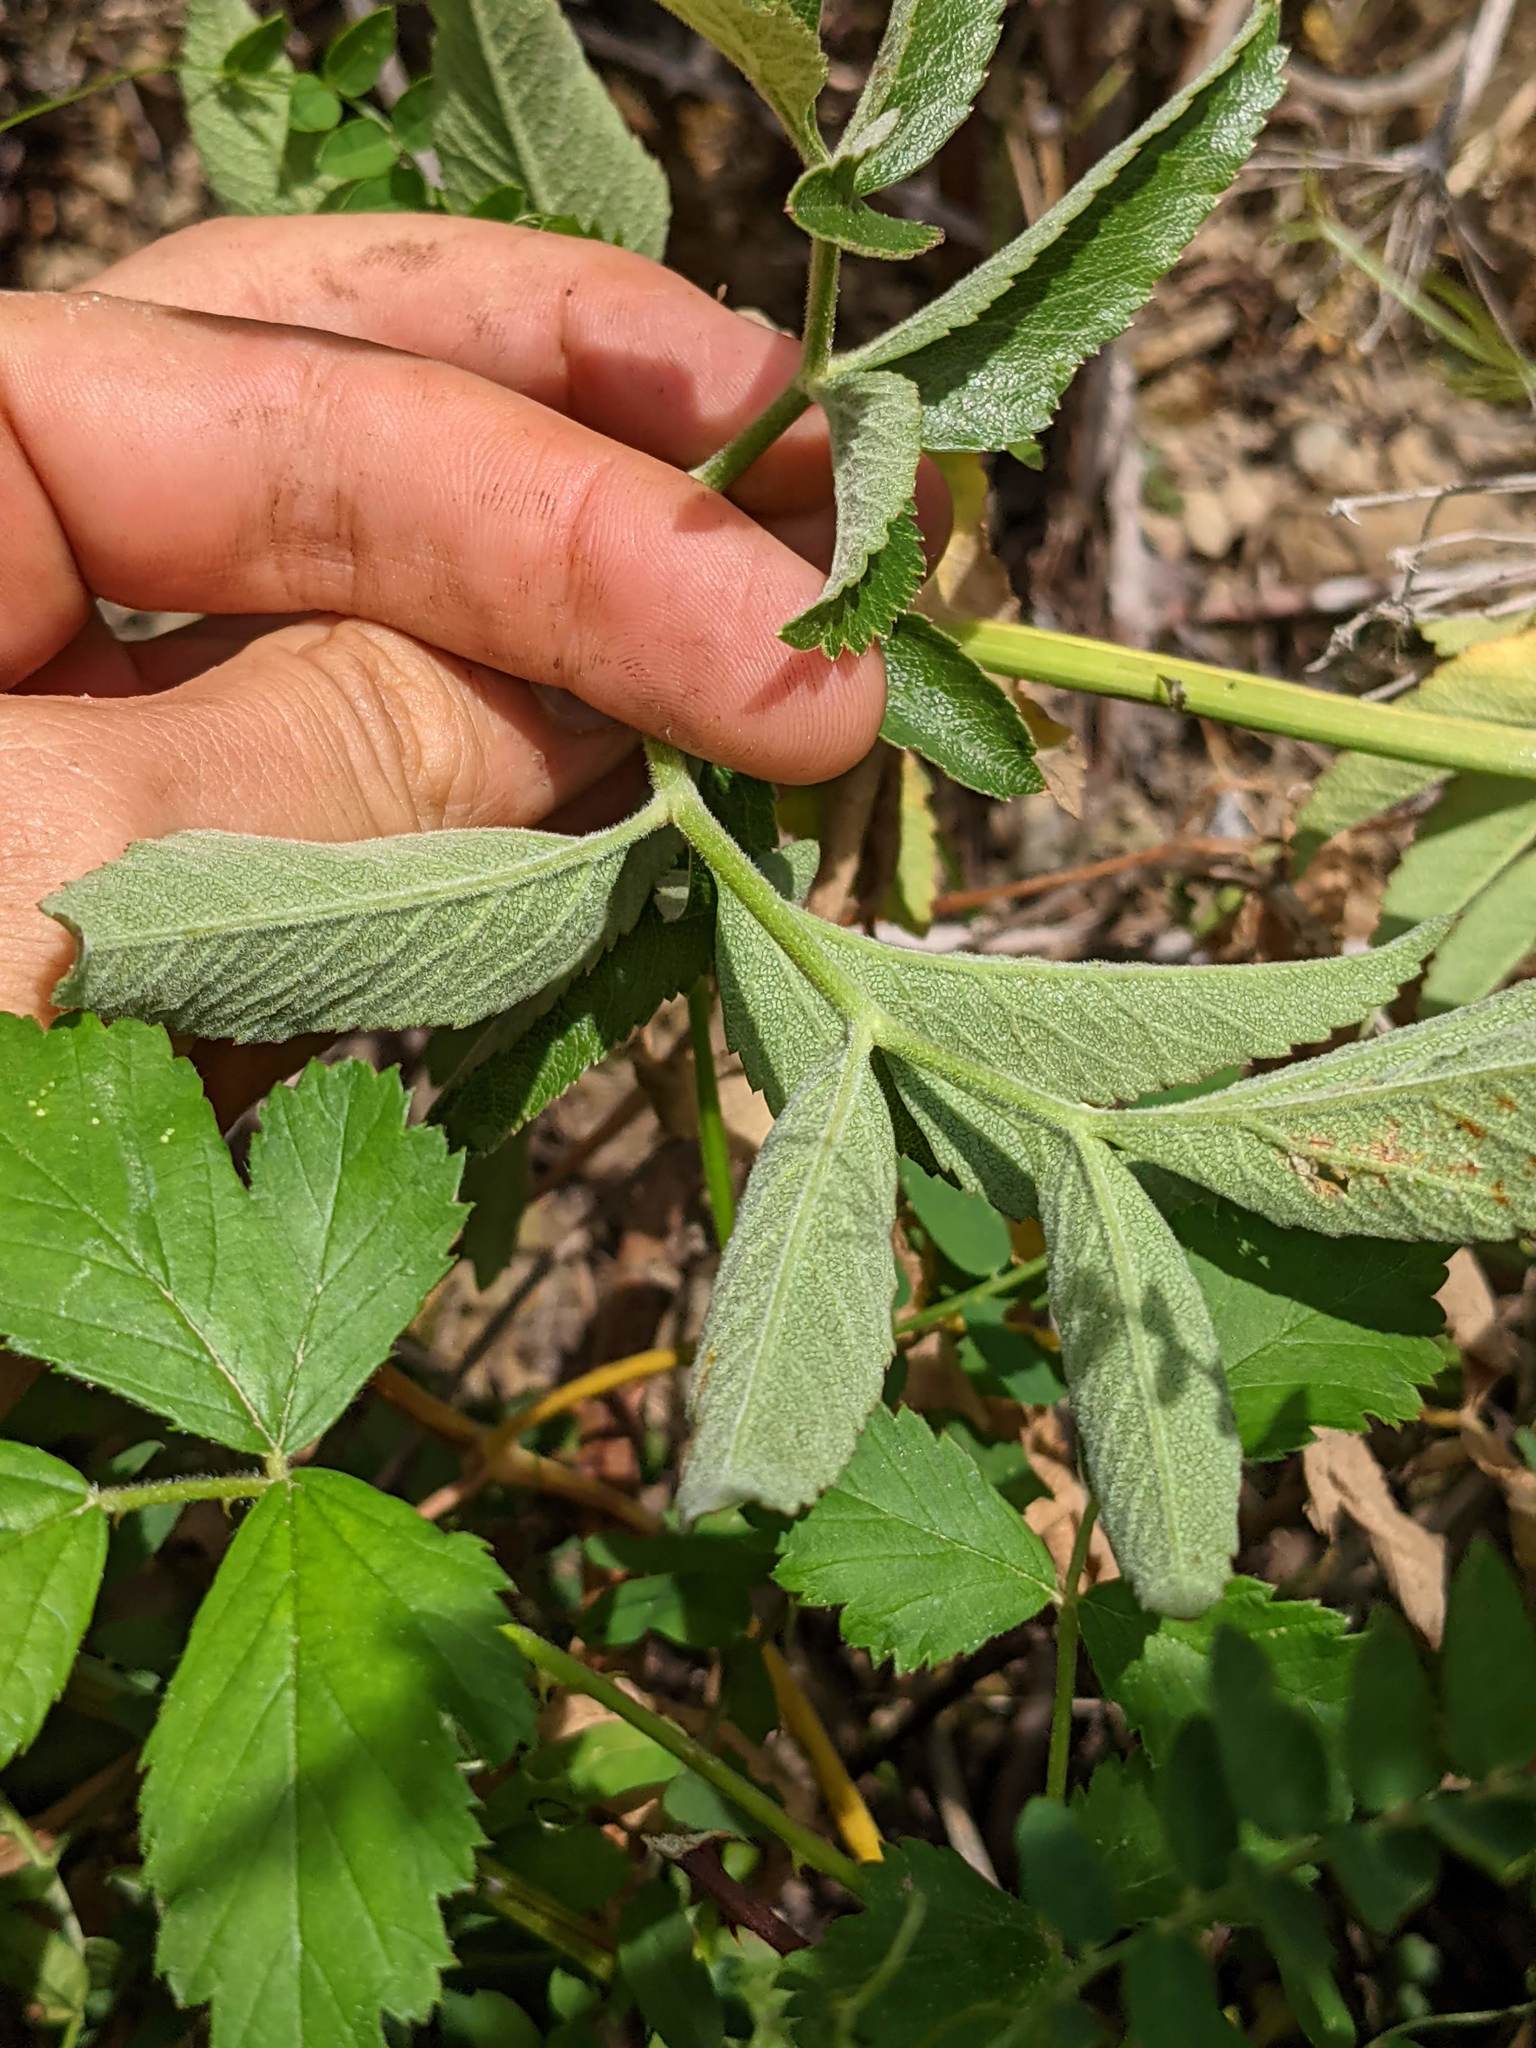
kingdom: Plantae
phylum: Tracheophyta
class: Magnoliopsida
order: Apiales
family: Apiaceae
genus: Angelica
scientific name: Angelica hendersonii
